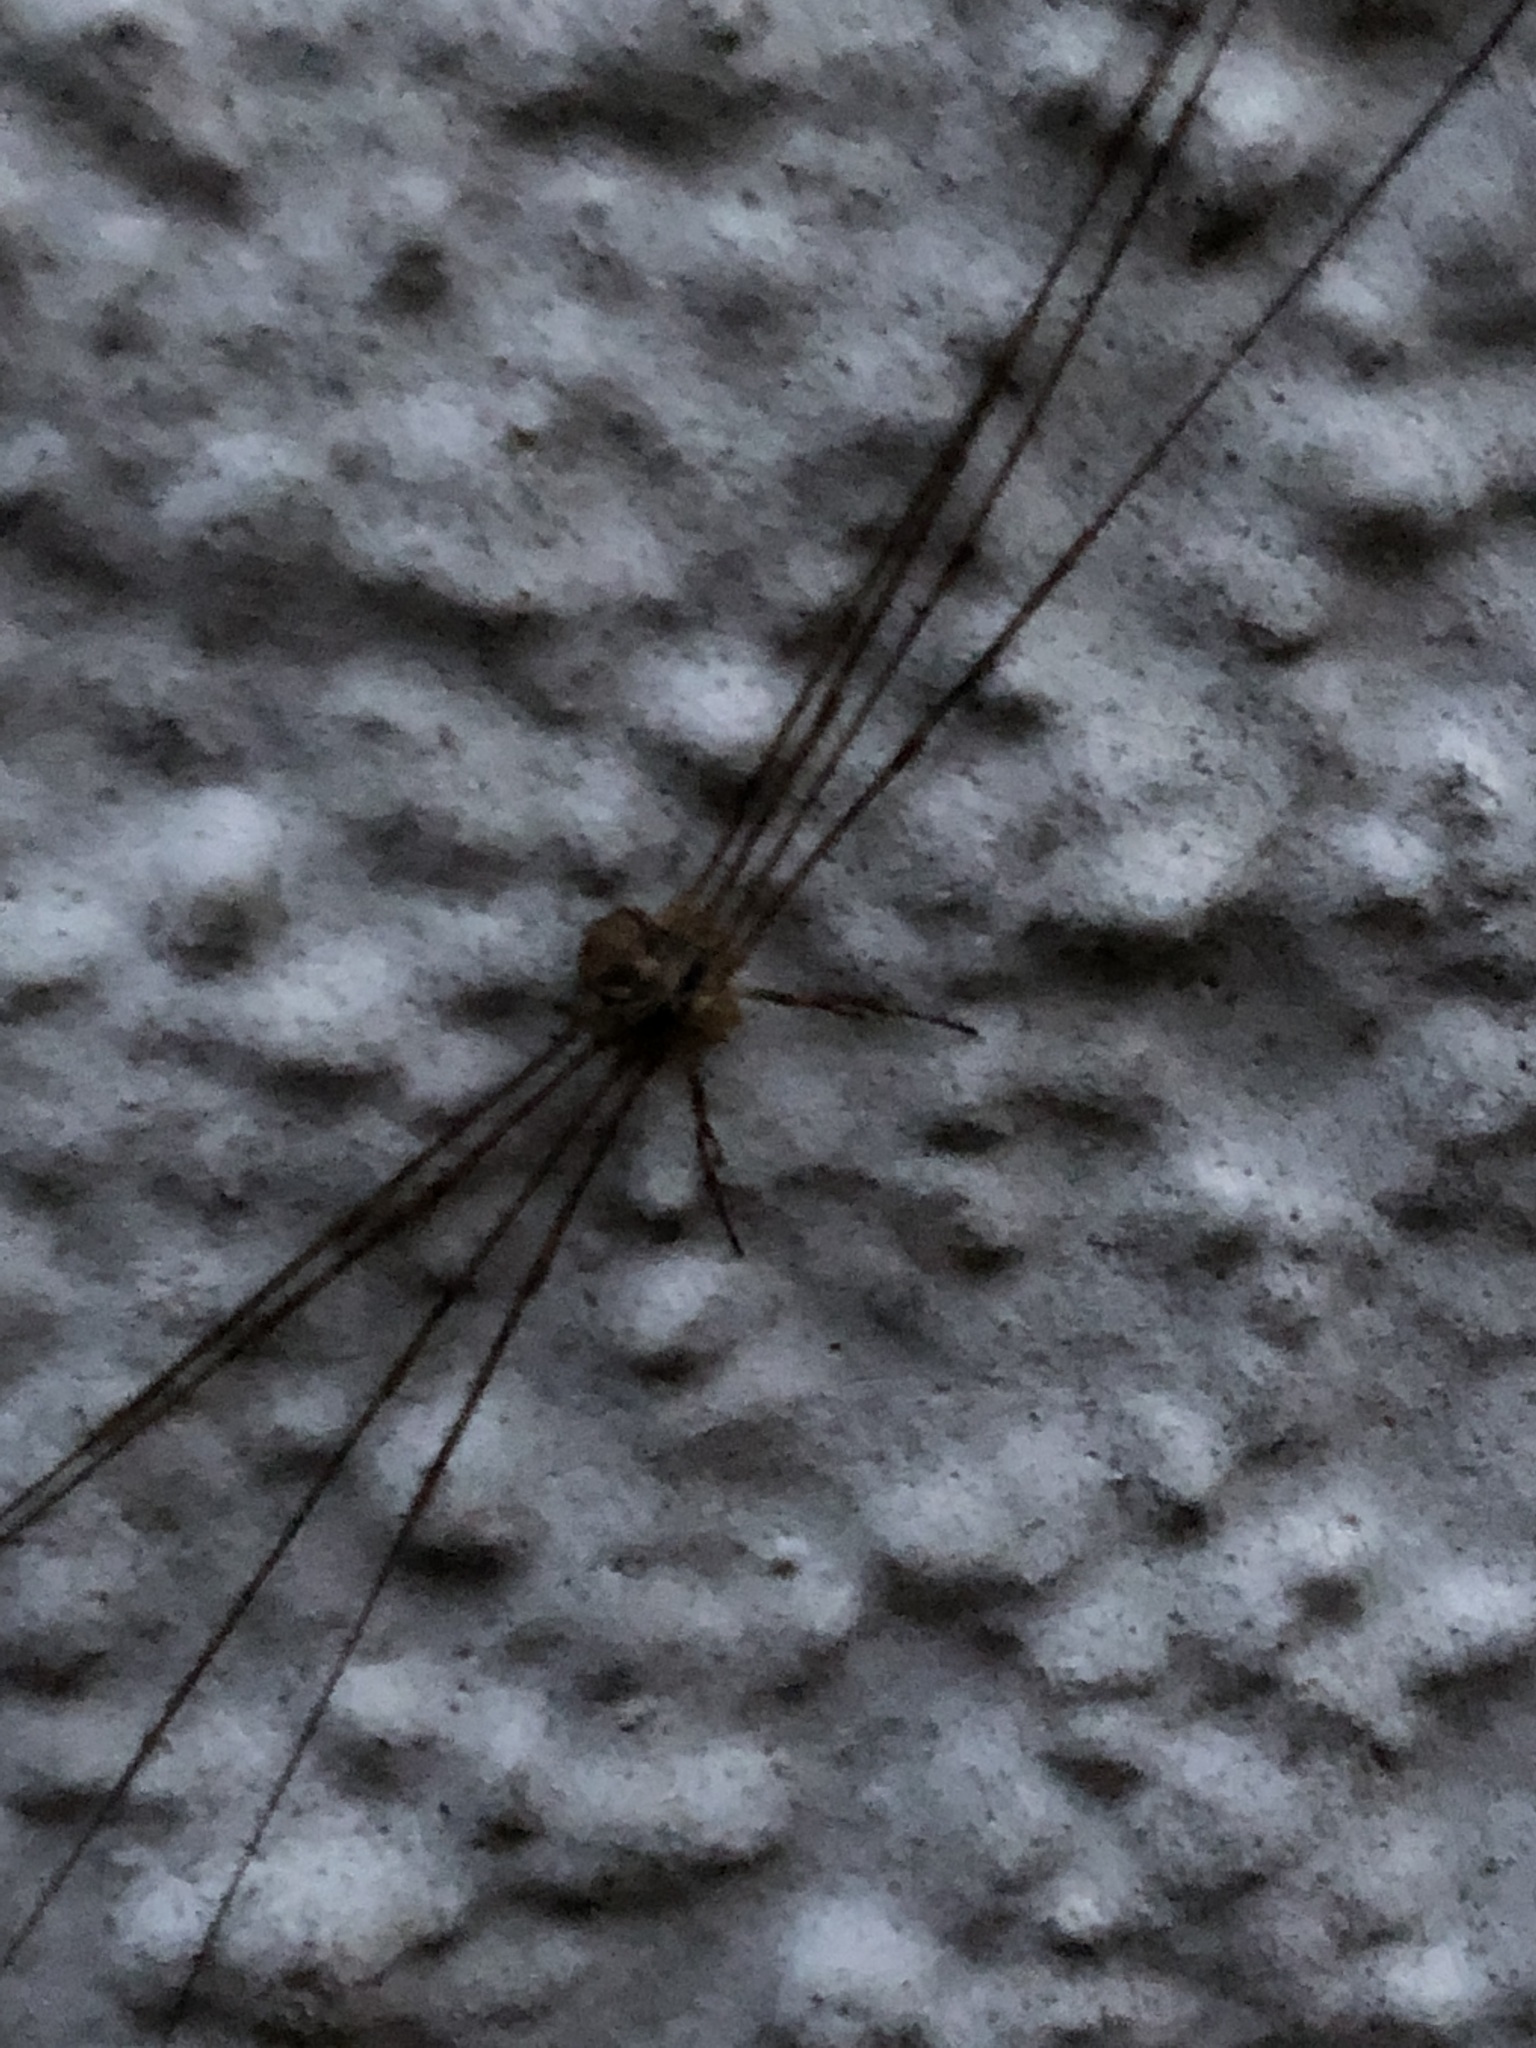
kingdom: Animalia
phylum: Arthropoda
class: Arachnida
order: Opiliones
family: Phalangiidae
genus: Dicranopalpus
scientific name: Dicranopalpus ramosus
